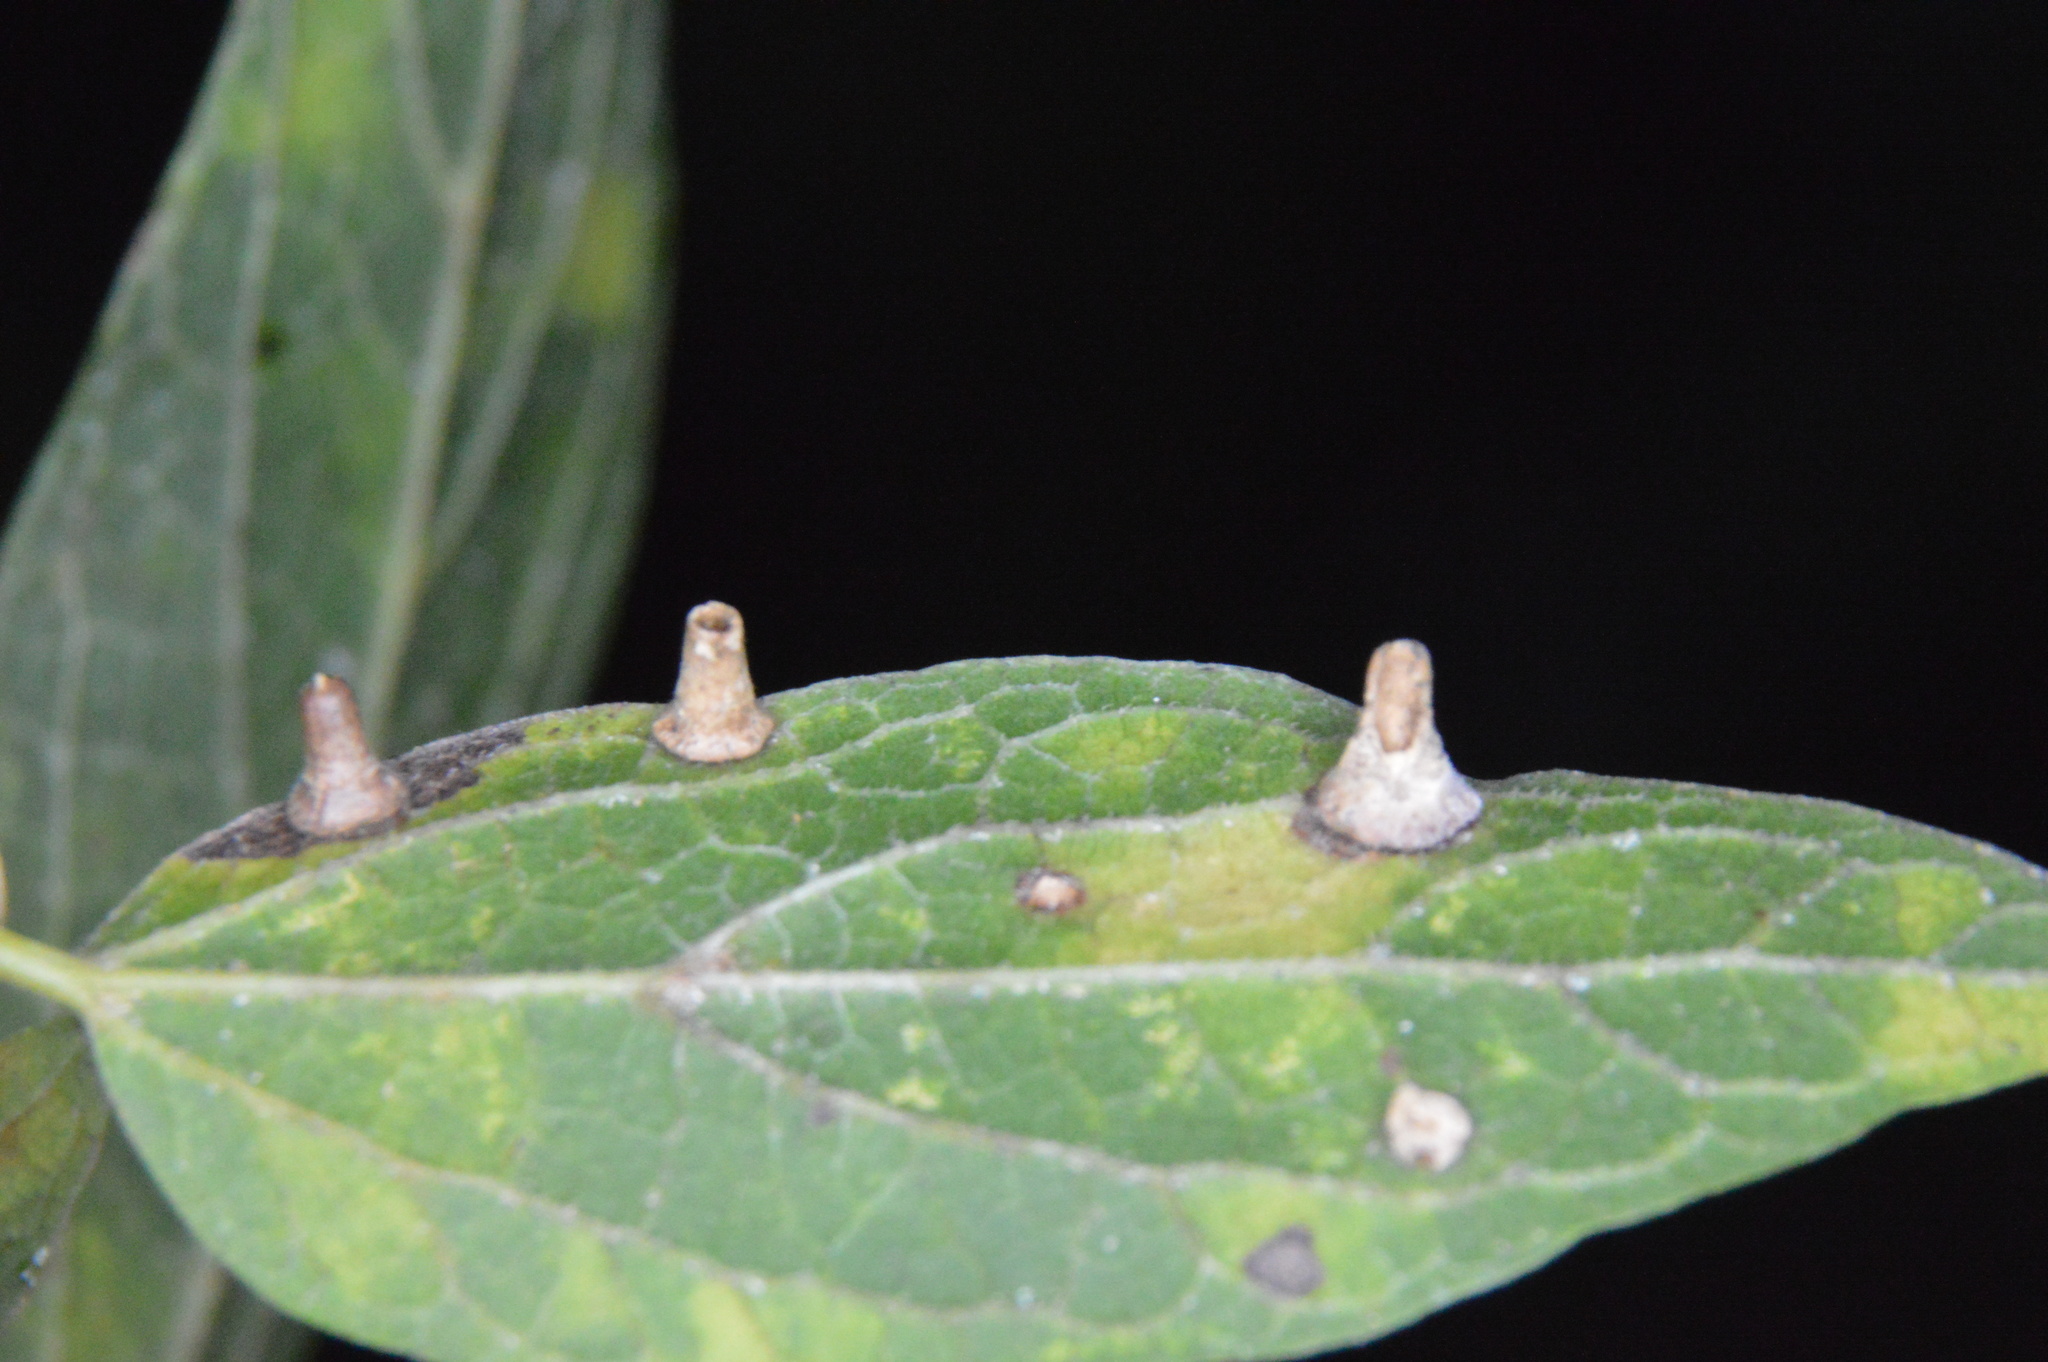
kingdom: Animalia
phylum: Arthropoda
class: Insecta
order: Diptera
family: Cecidomyiidae
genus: Celticecis
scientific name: Celticecis aciculata
